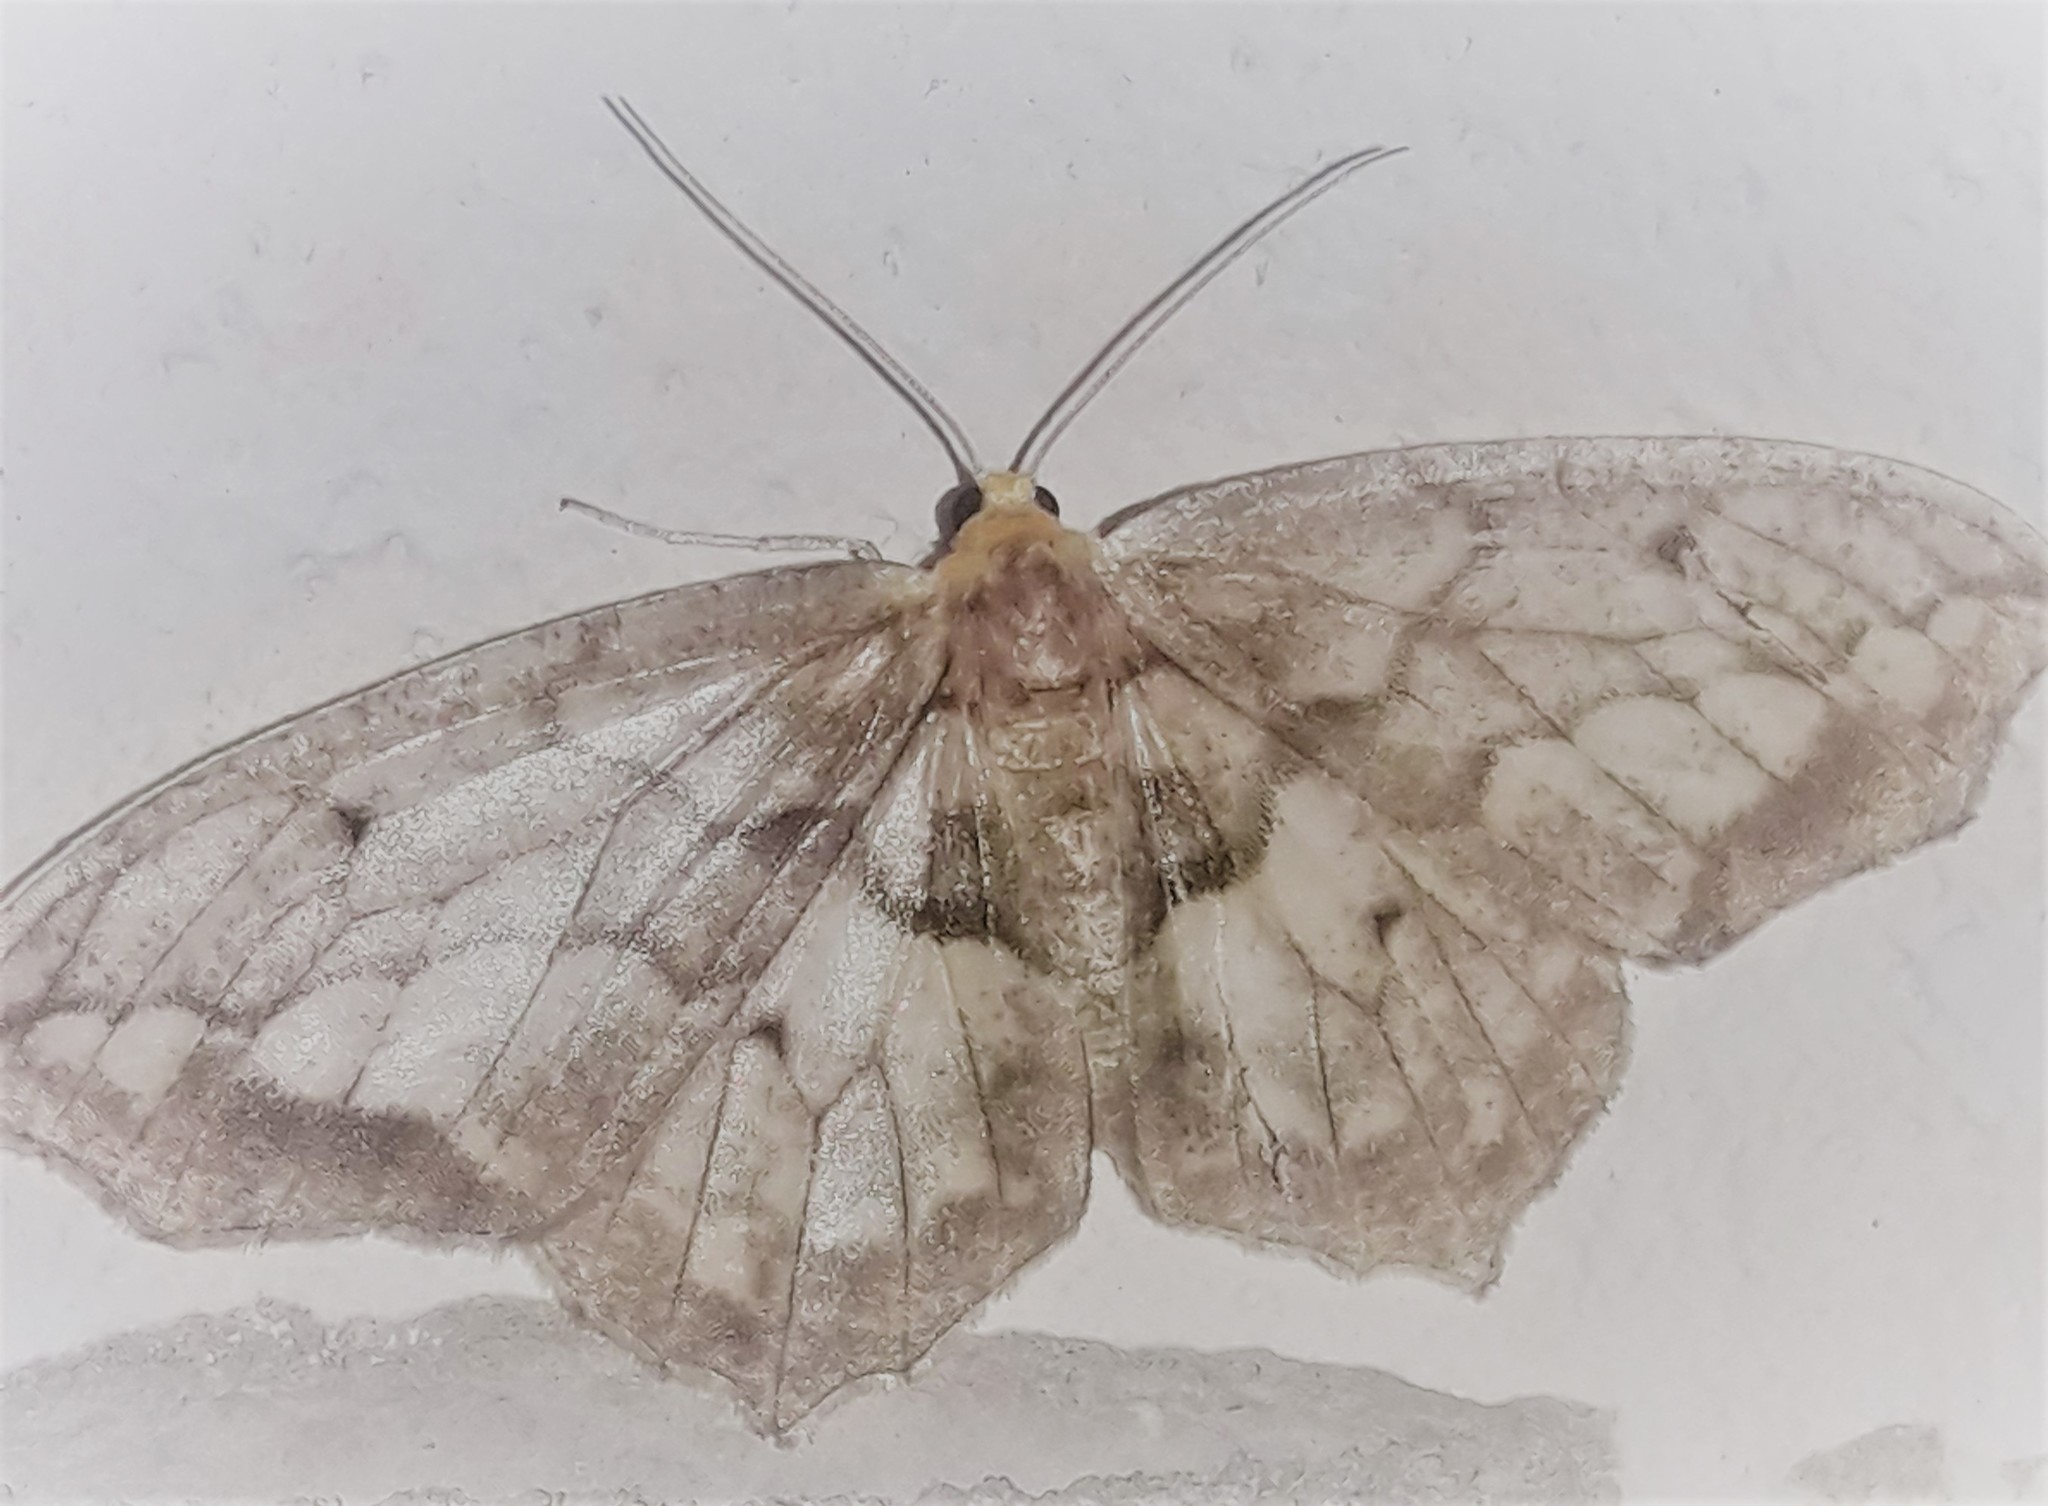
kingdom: Animalia
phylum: Arthropoda
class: Insecta
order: Lepidoptera
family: Geometridae
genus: Hydatoscia
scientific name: Hydatoscia ategua
